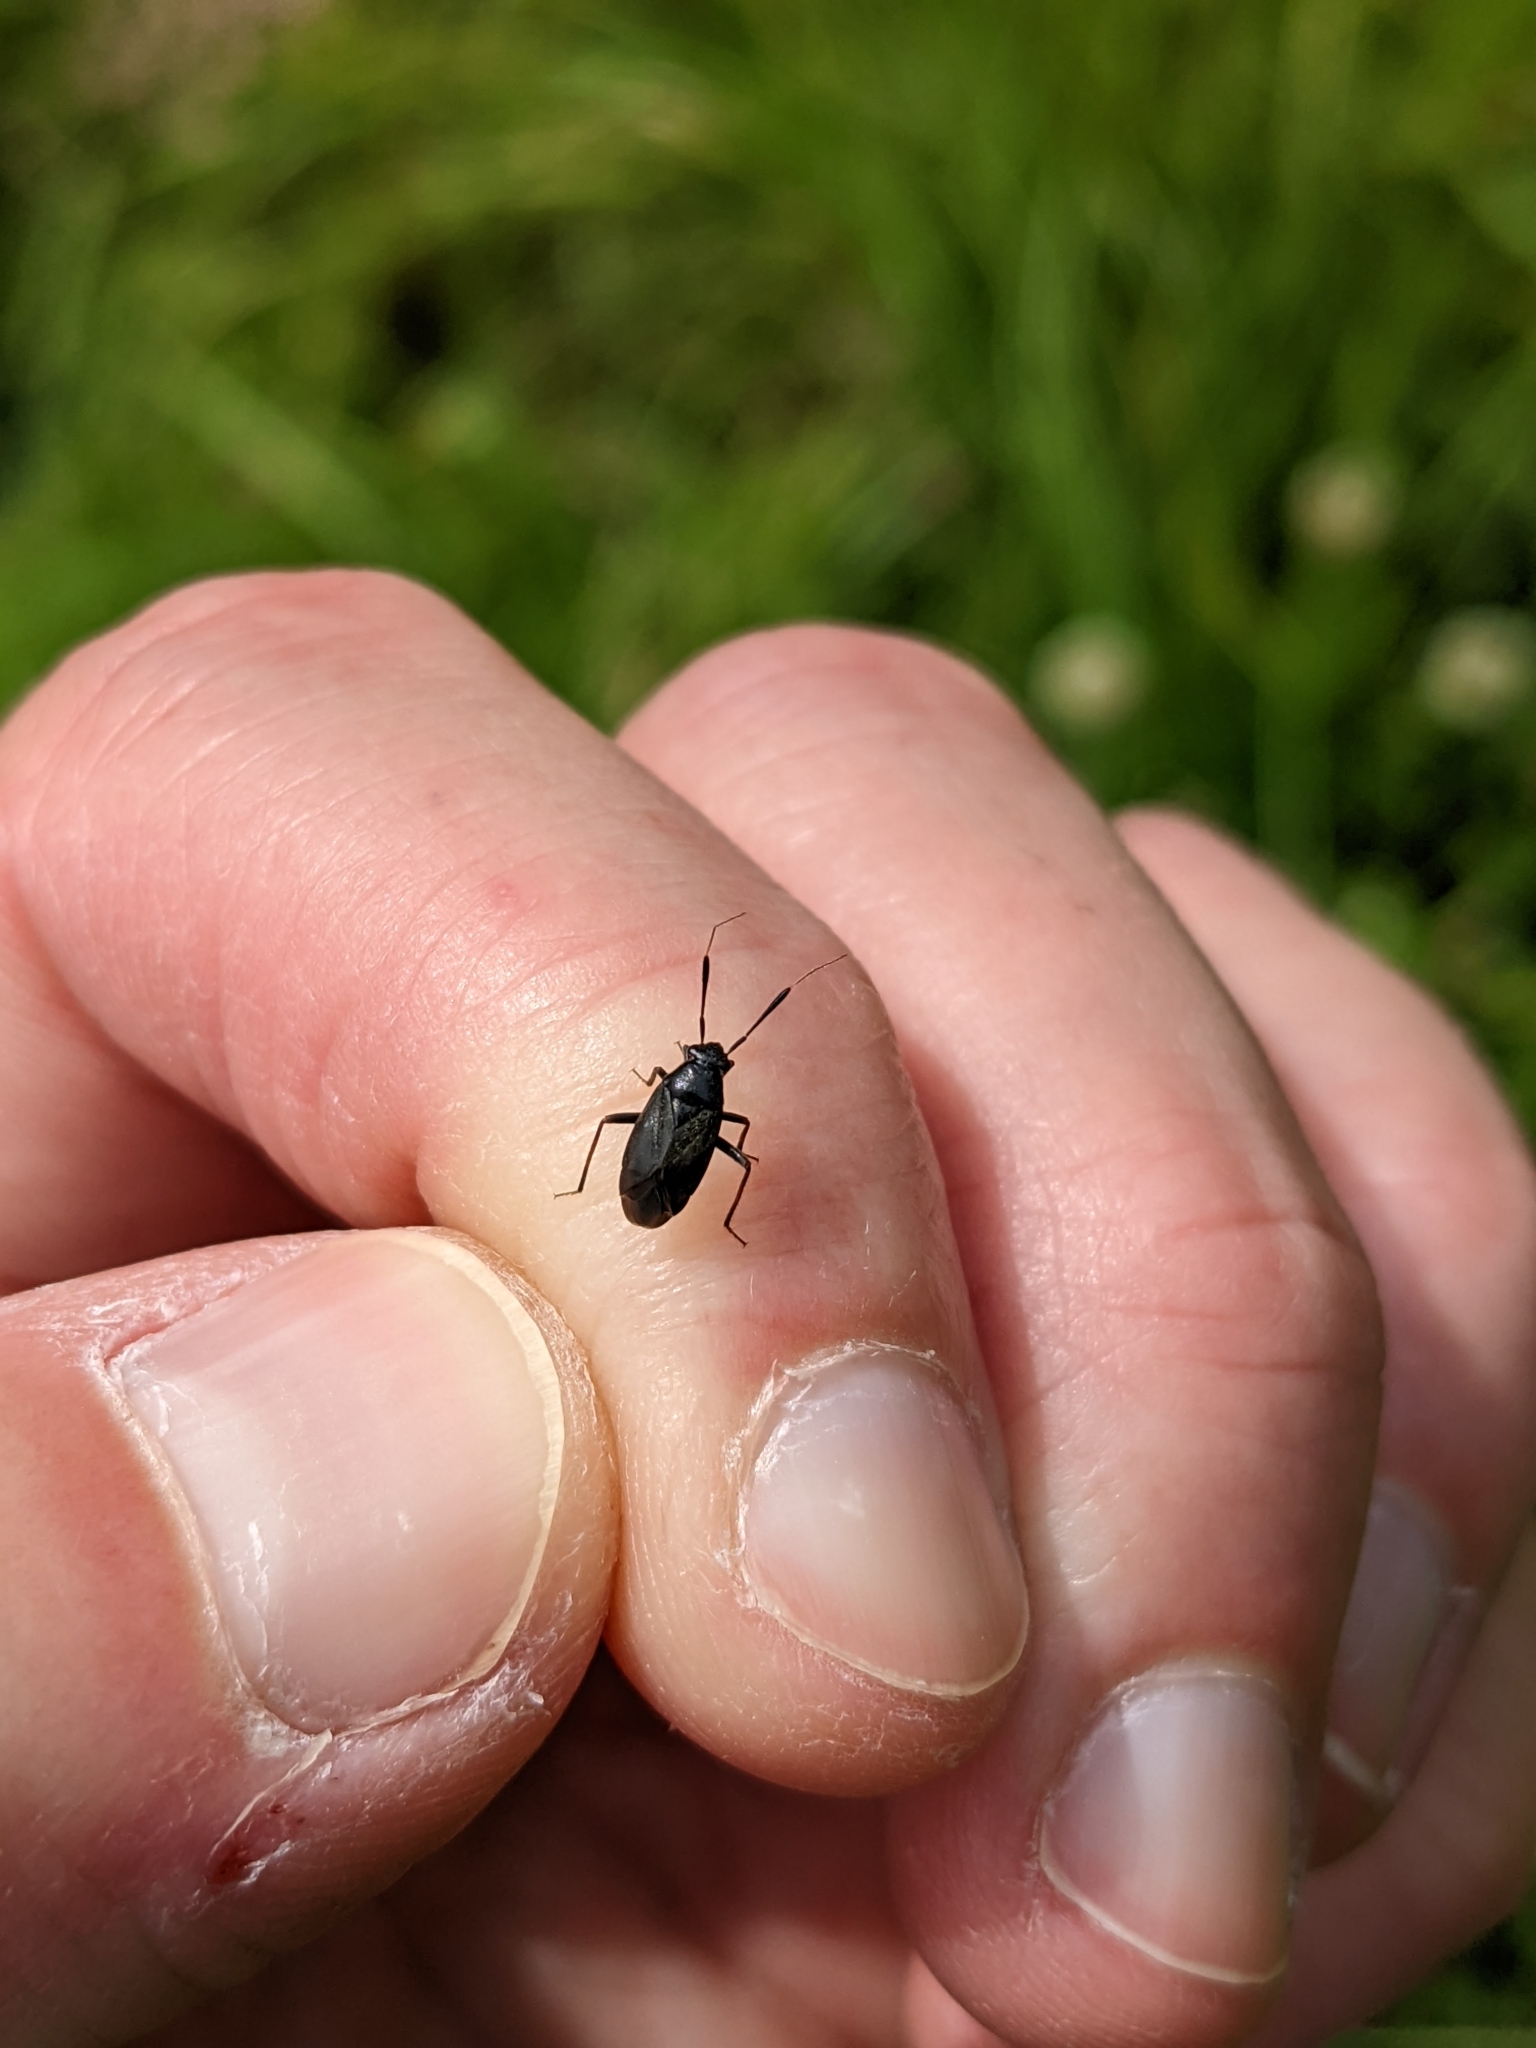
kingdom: Animalia
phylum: Arthropoda
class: Insecta
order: Hemiptera
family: Miridae
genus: Capsus
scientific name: Capsus ater
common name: Black plant bug
